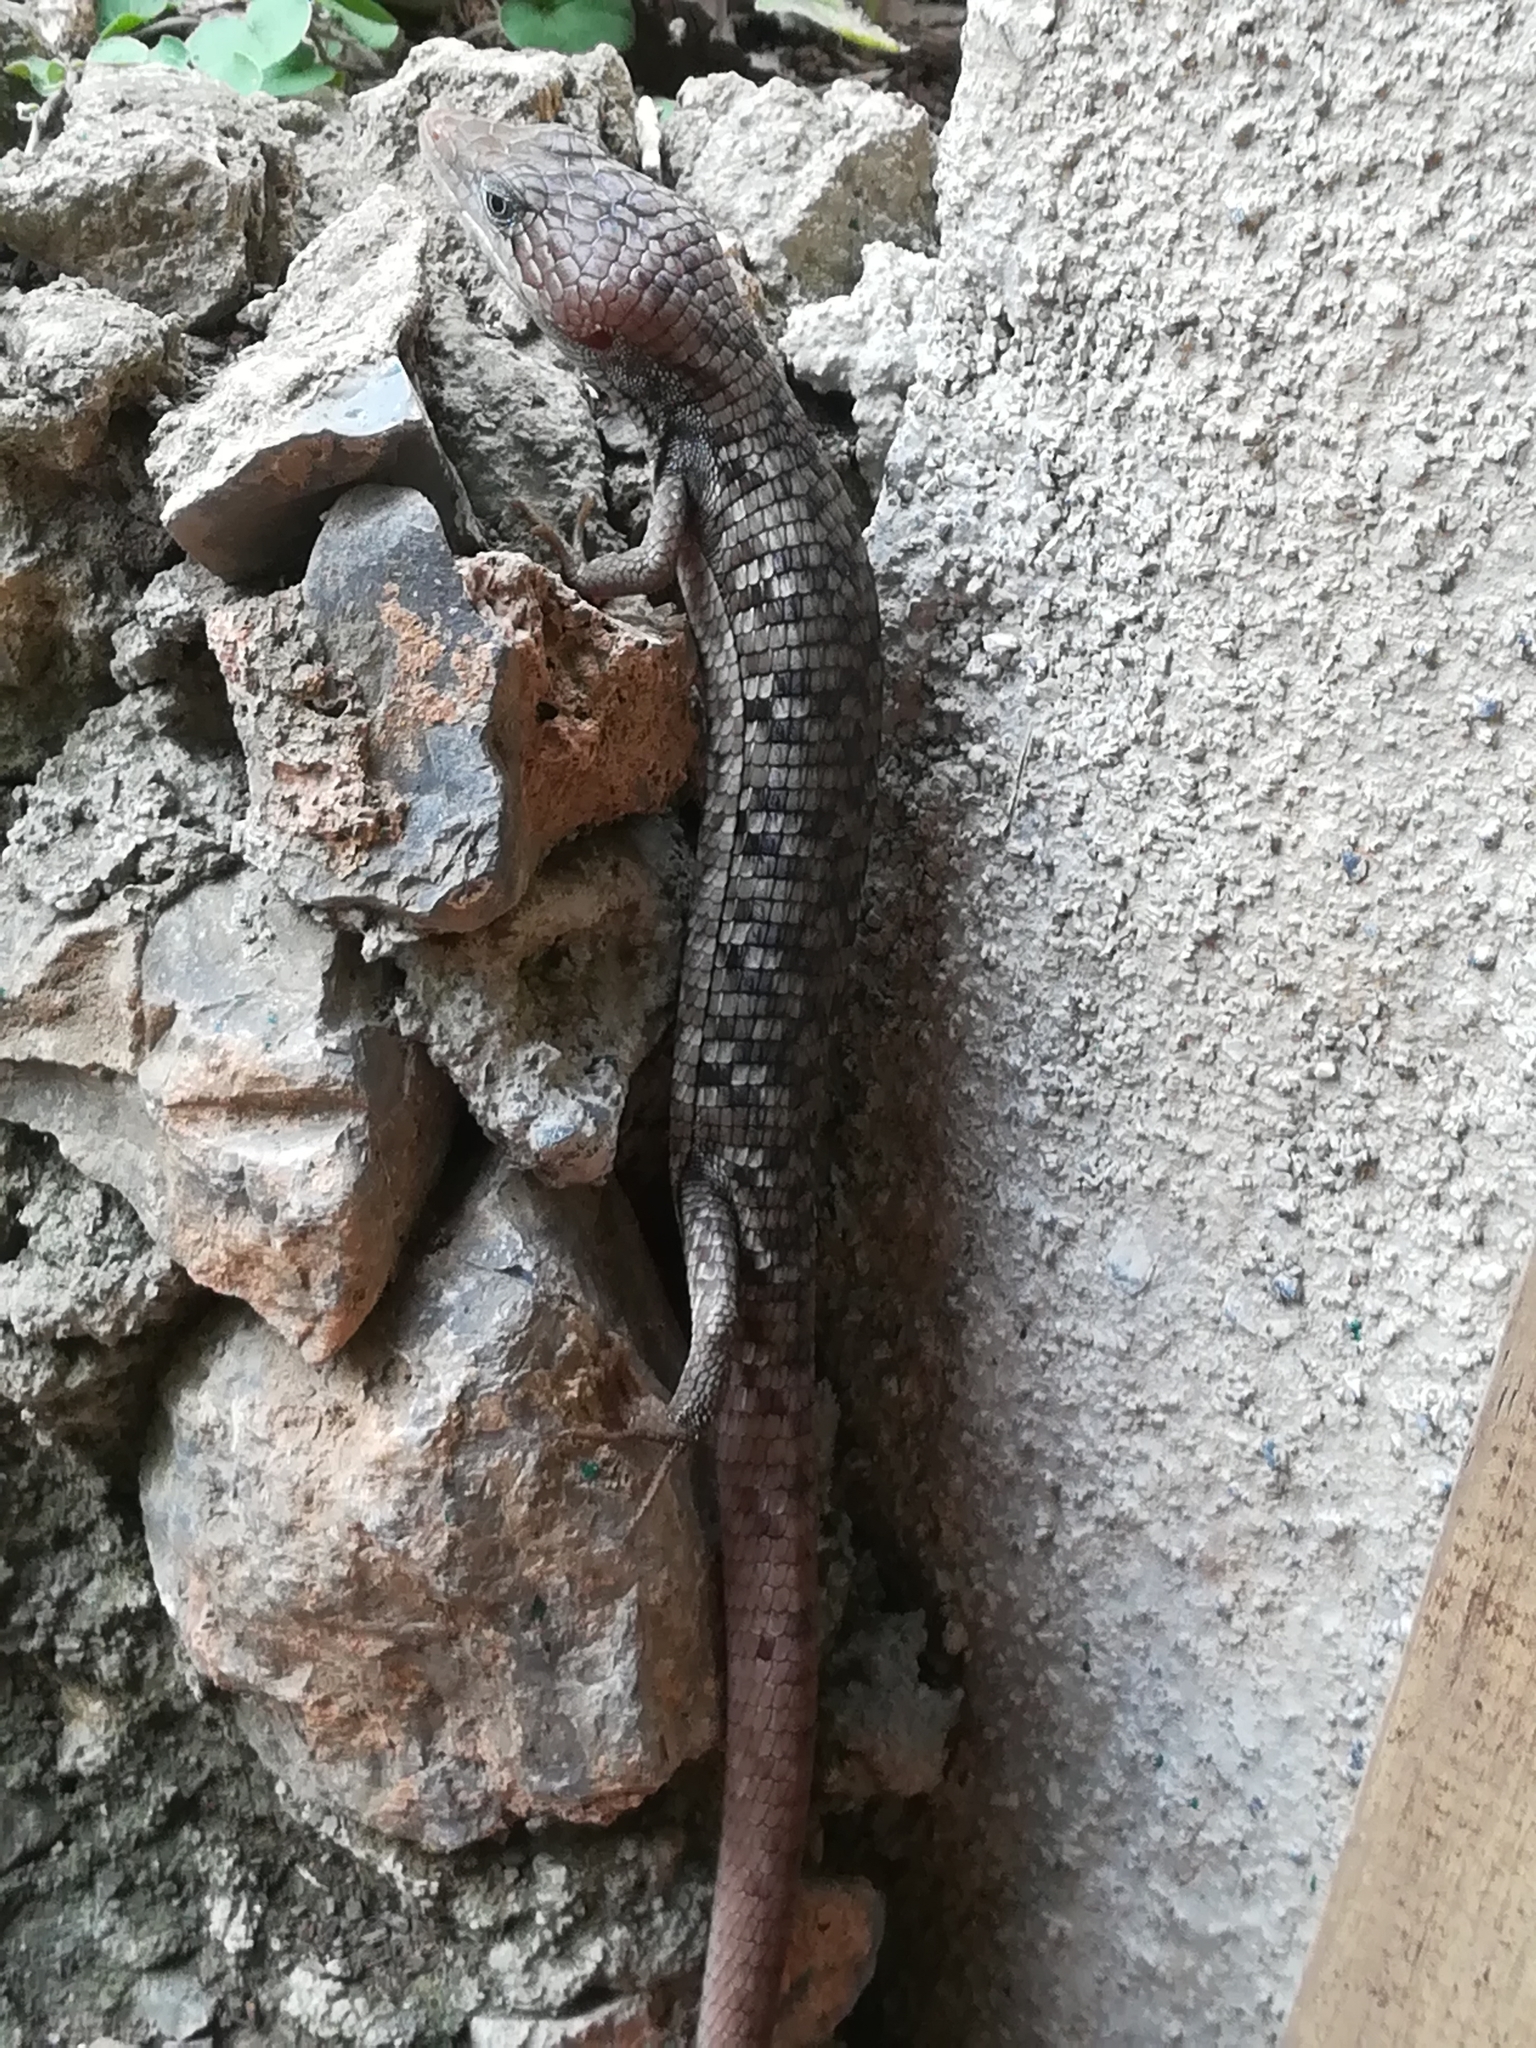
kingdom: Animalia
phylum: Chordata
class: Squamata
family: Anguidae
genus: Gerrhonotus
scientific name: Gerrhonotus infernalis
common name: Texas alligator lizard
